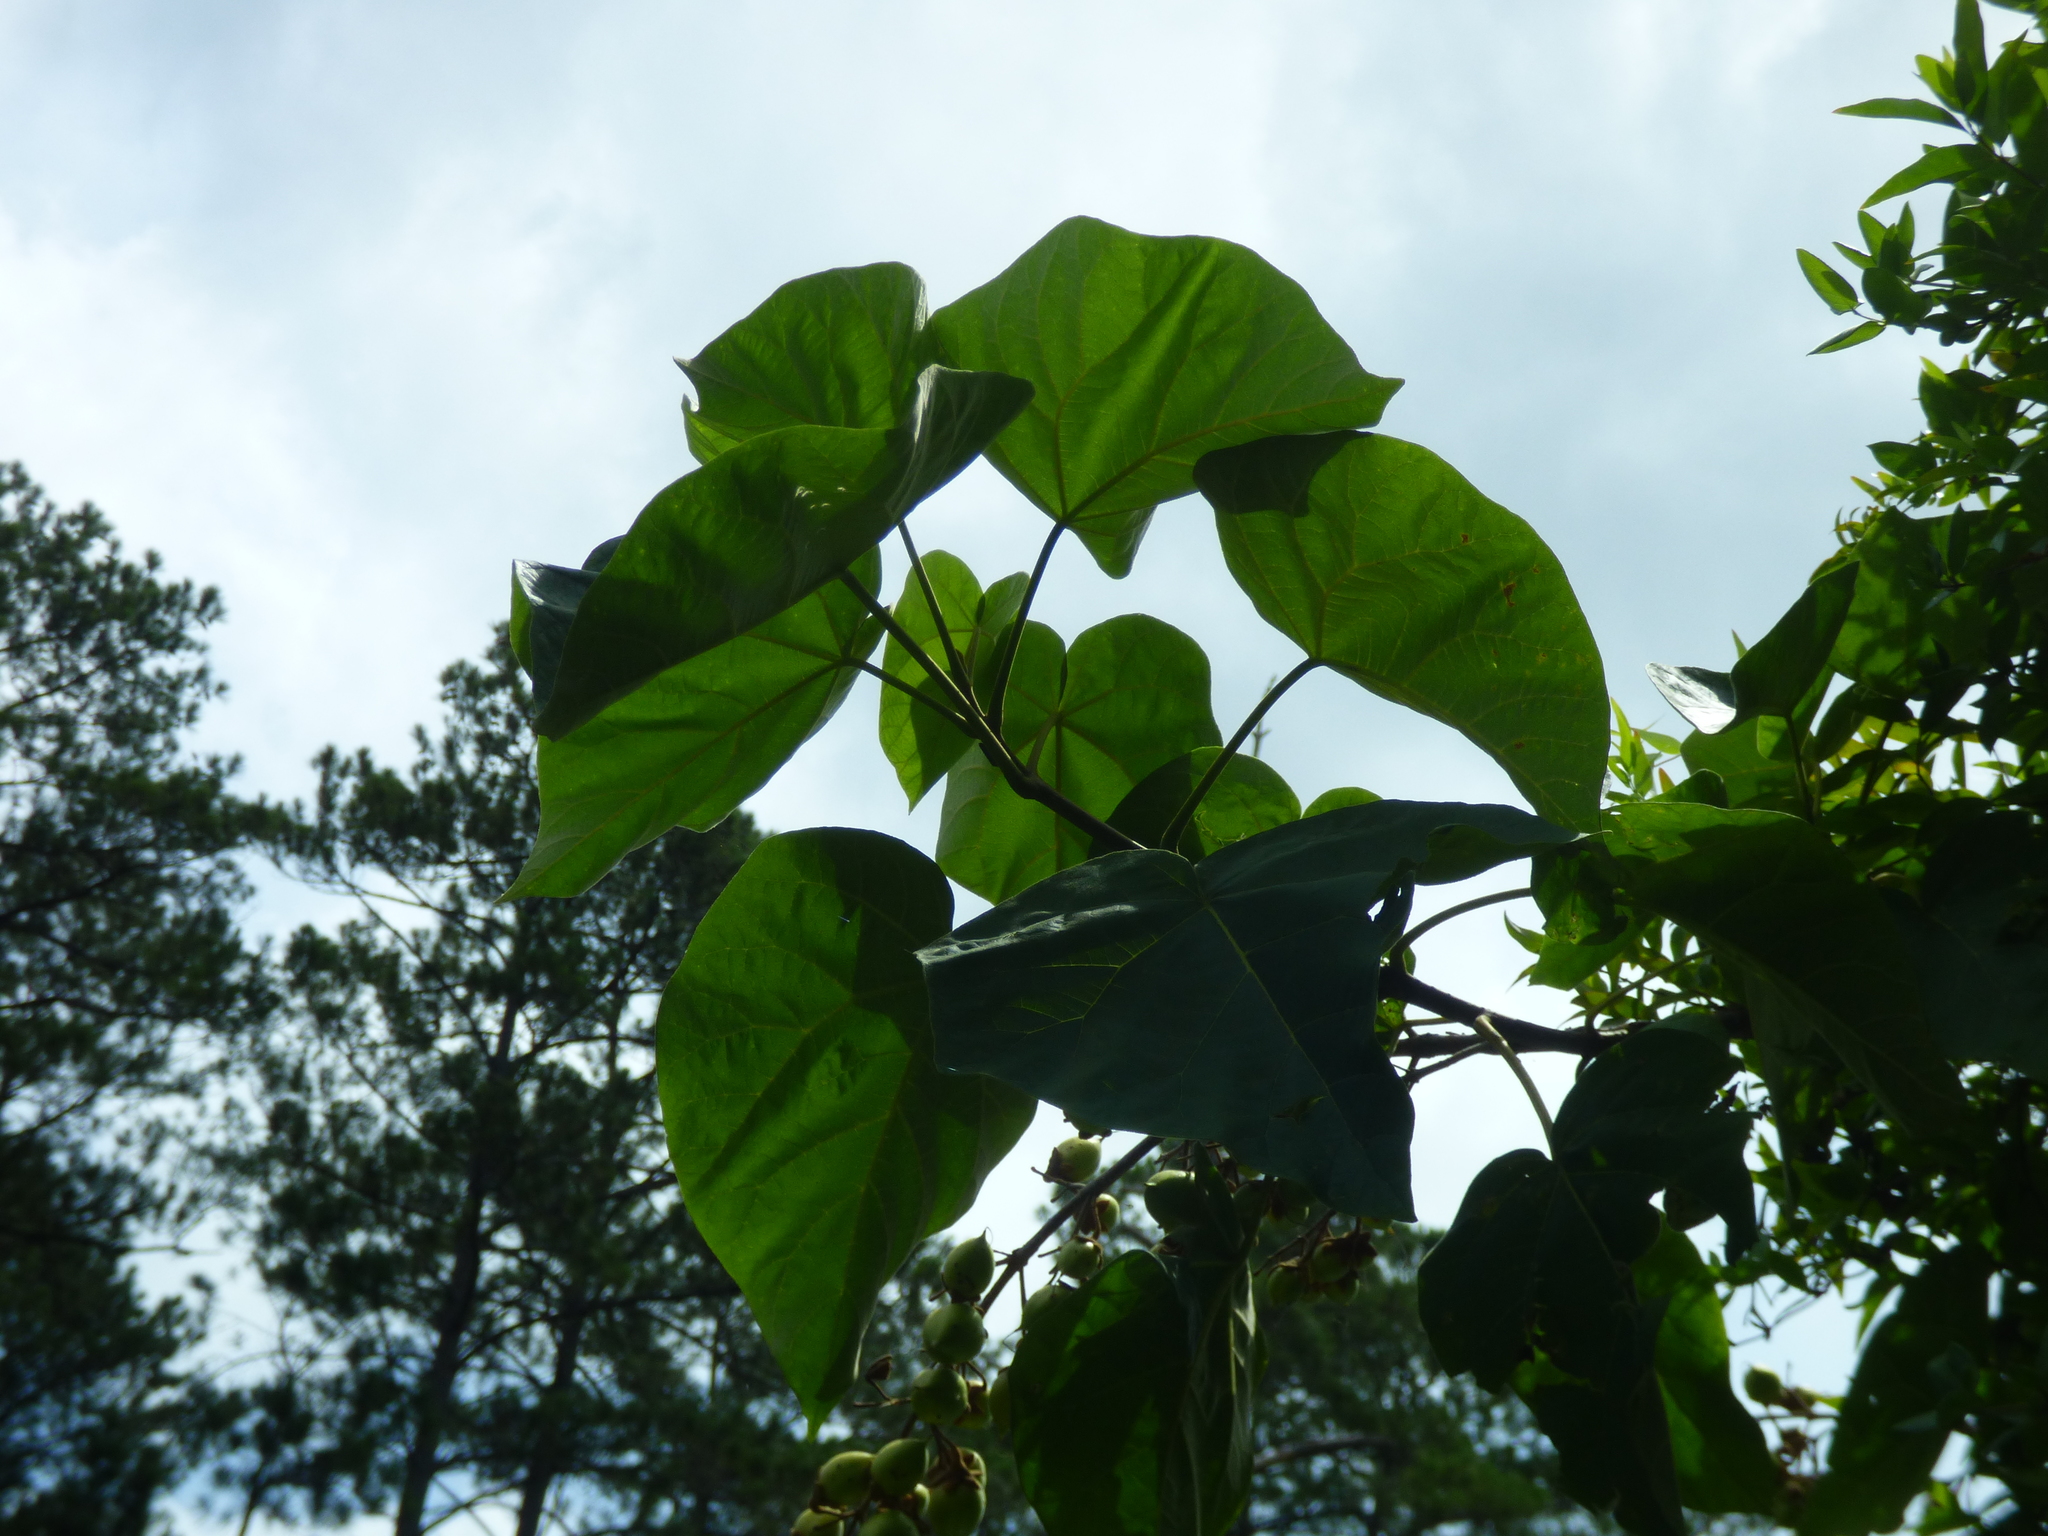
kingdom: Plantae
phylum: Tracheophyta
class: Magnoliopsida
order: Lamiales
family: Paulowniaceae
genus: Paulownia
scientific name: Paulownia tomentosa
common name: Foxglove-tree
